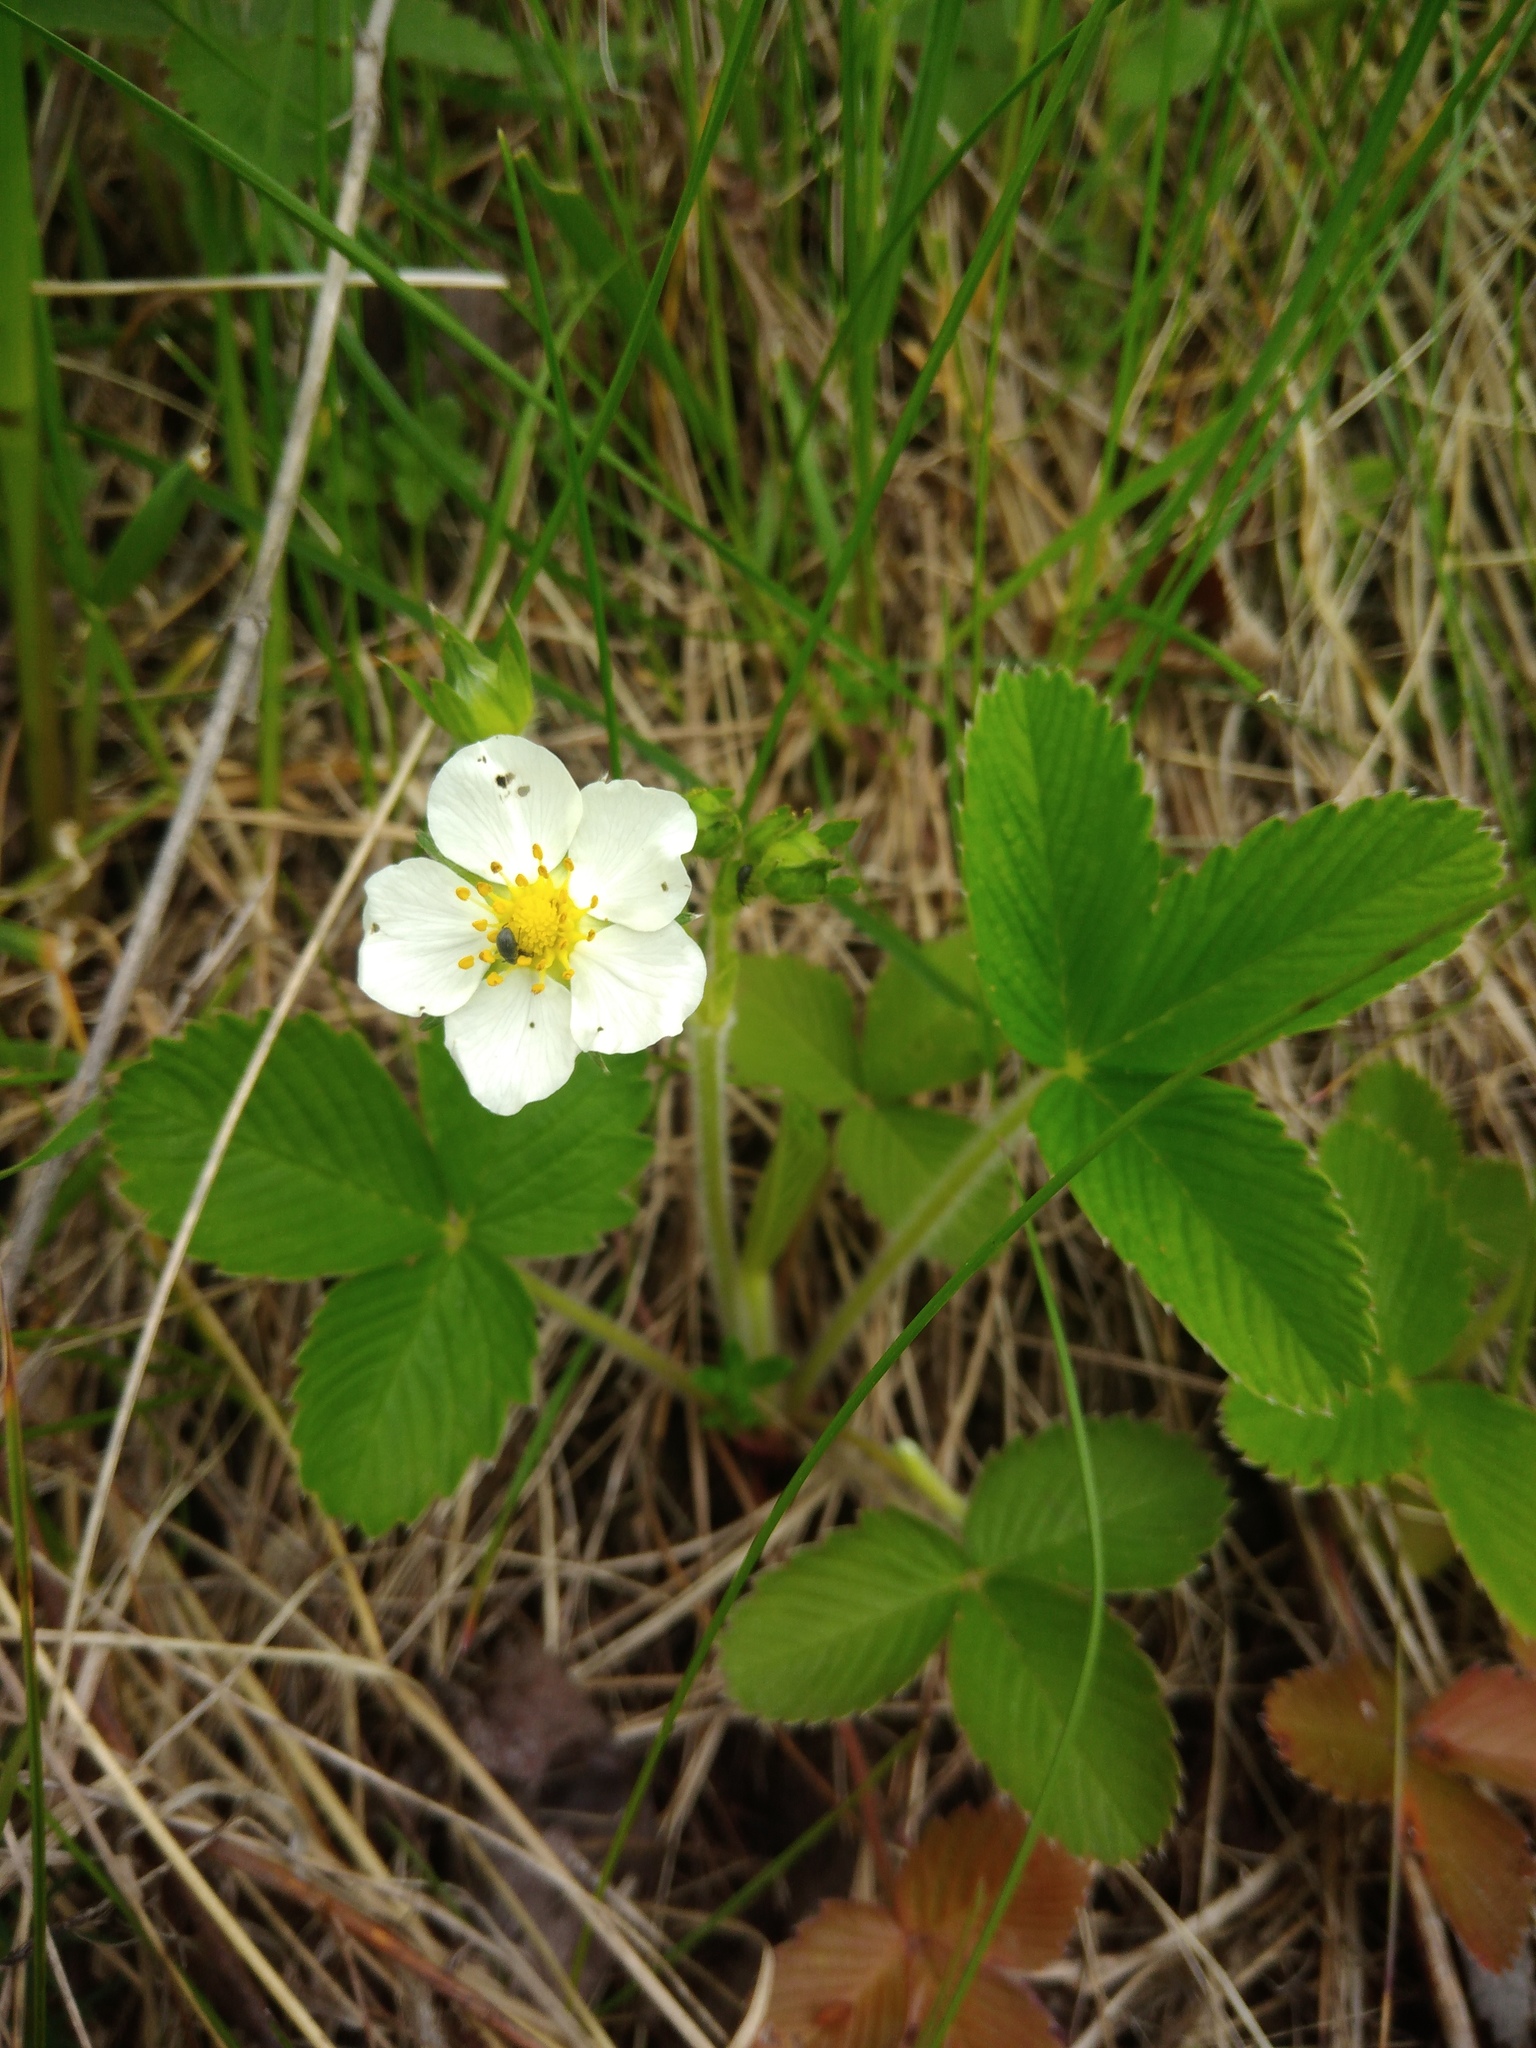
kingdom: Plantae
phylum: Tracheophyta
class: Magnoliopsida
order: Rosales
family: Rosaceae
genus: Fragaria
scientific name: Fragaria viridis
